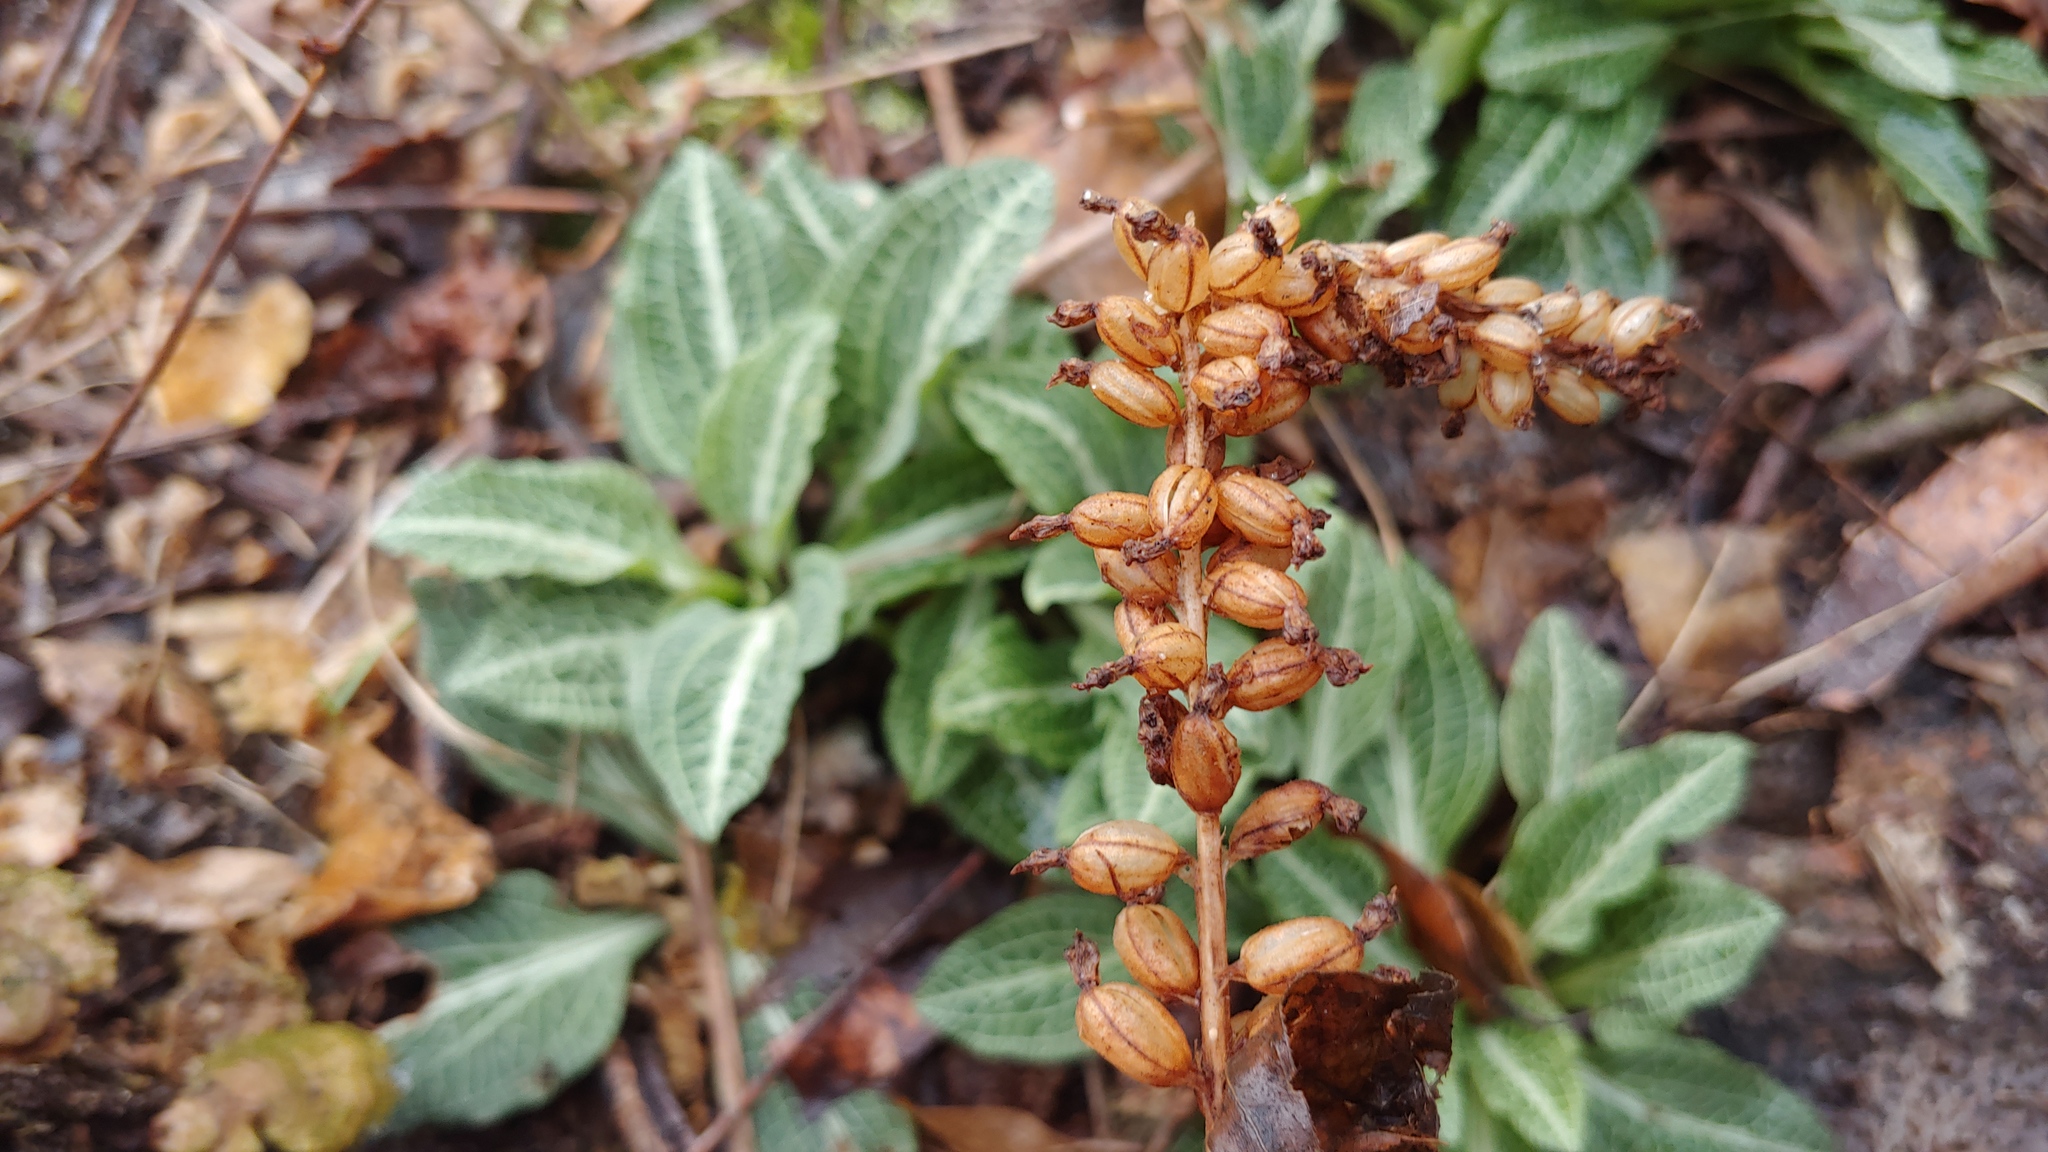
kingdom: Plantae
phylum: Tracheophyta
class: Liliopsida
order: Asparagales
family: Orchidaceae
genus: Goodyera
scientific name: Goodyera pubescens
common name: Downy rattlesnake-plantain
